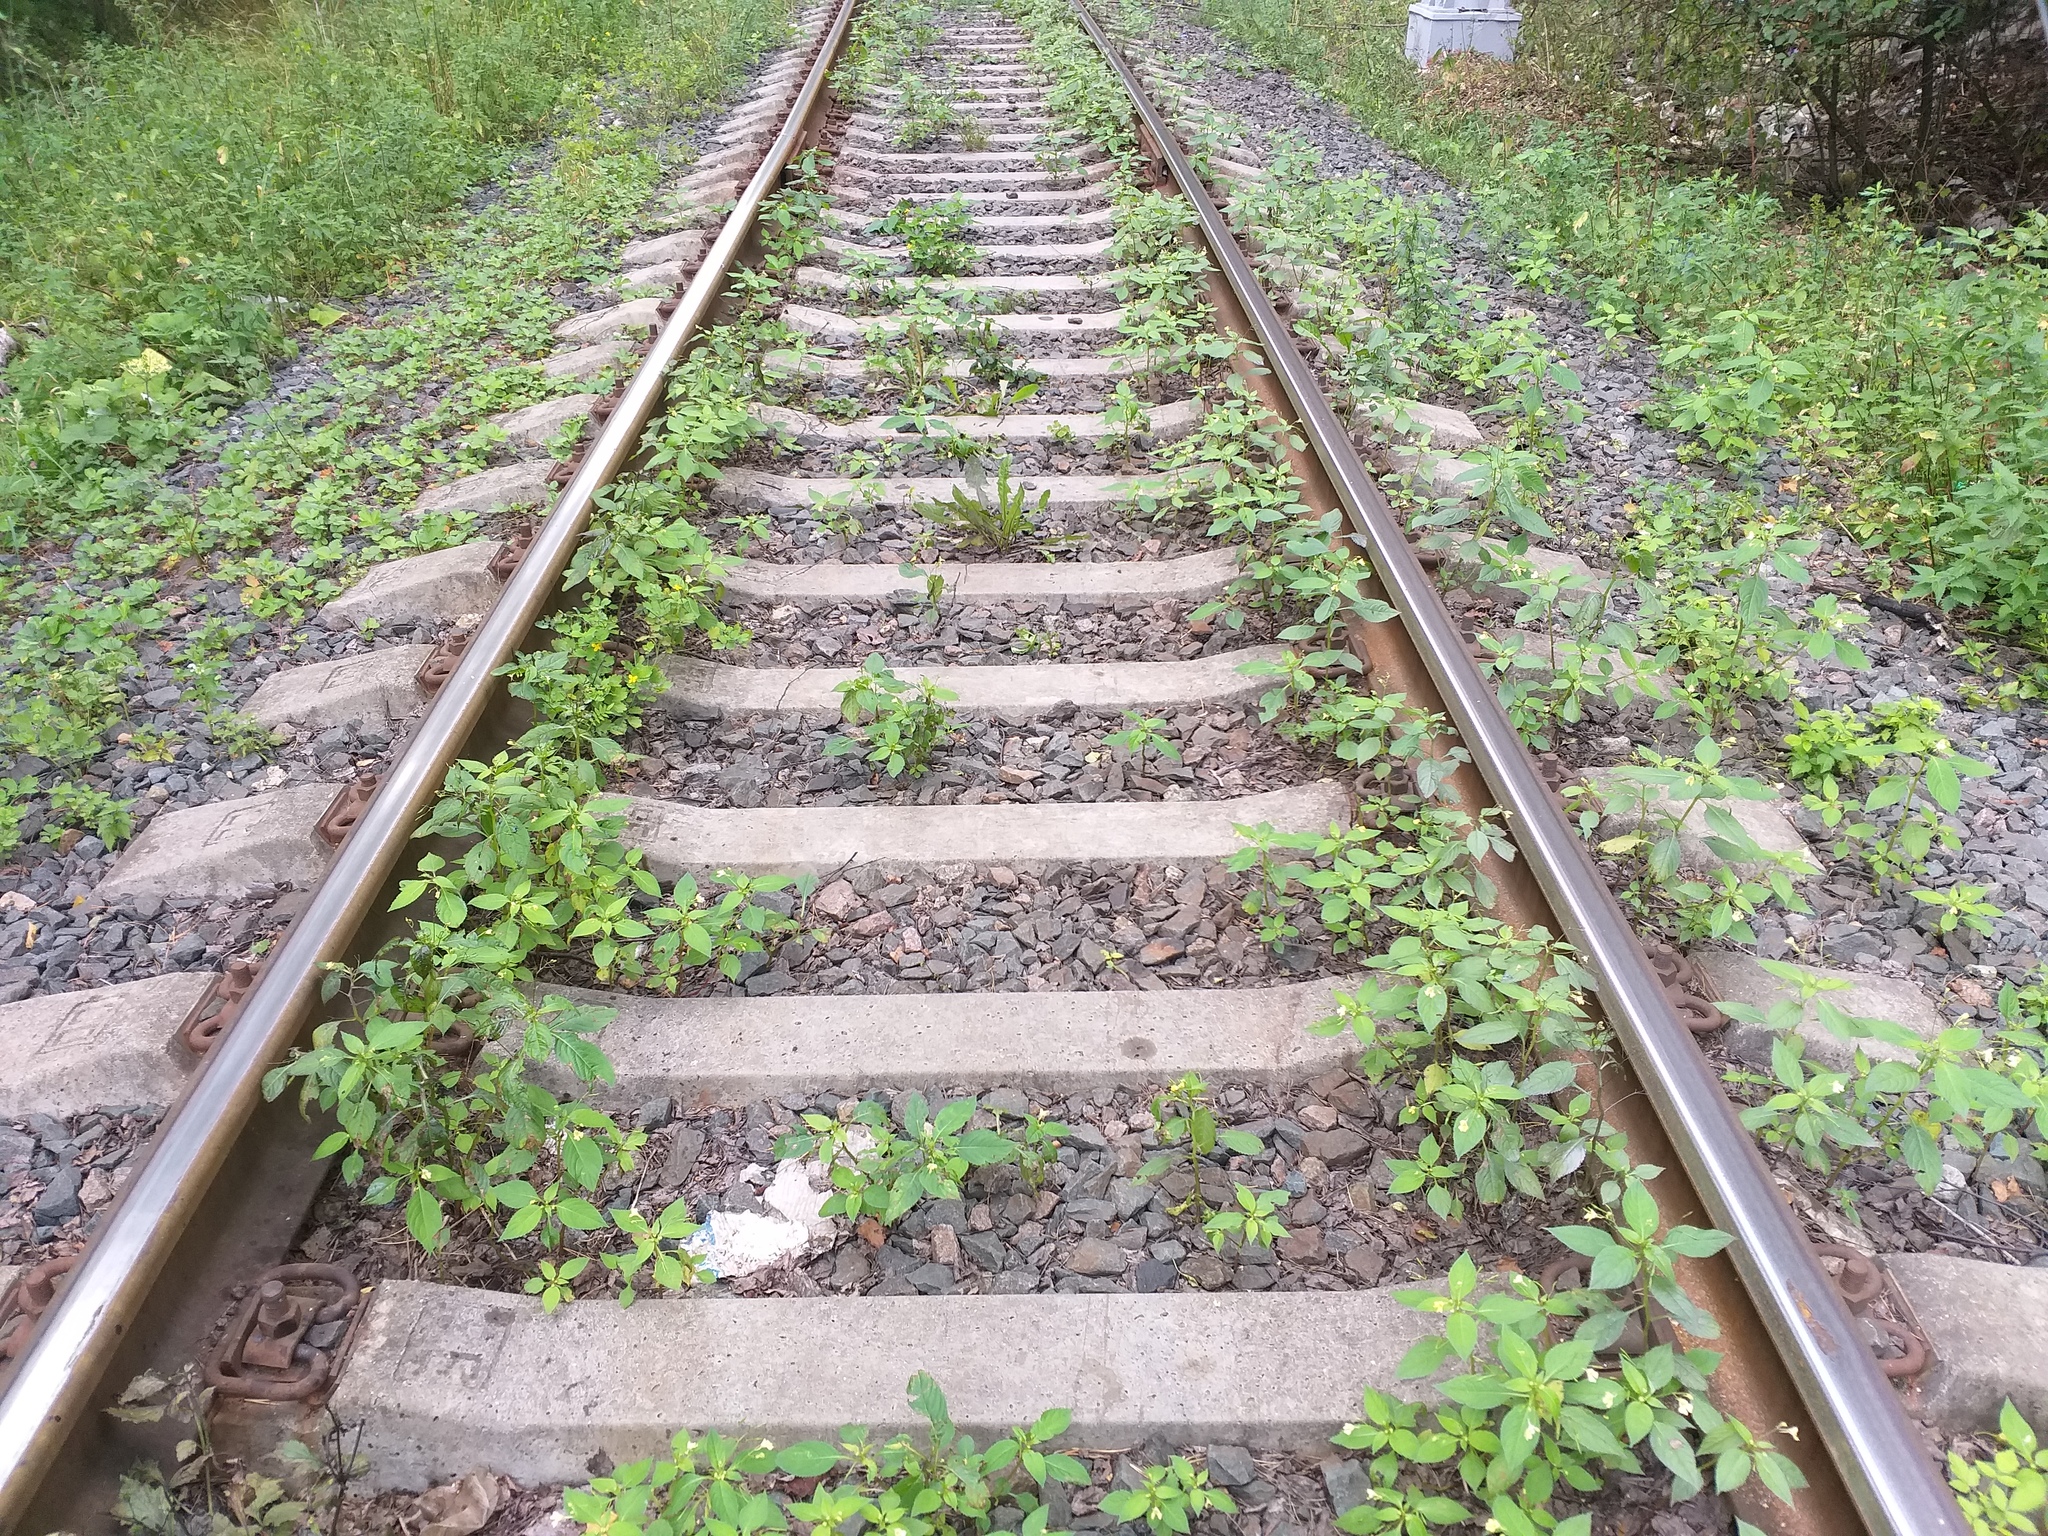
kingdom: Plantae
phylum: Tracheophyta
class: Magnoliopsida
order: Ericales
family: Balsaminaceae
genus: Impatiens
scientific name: Impatiens parviflora
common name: Small balsam
